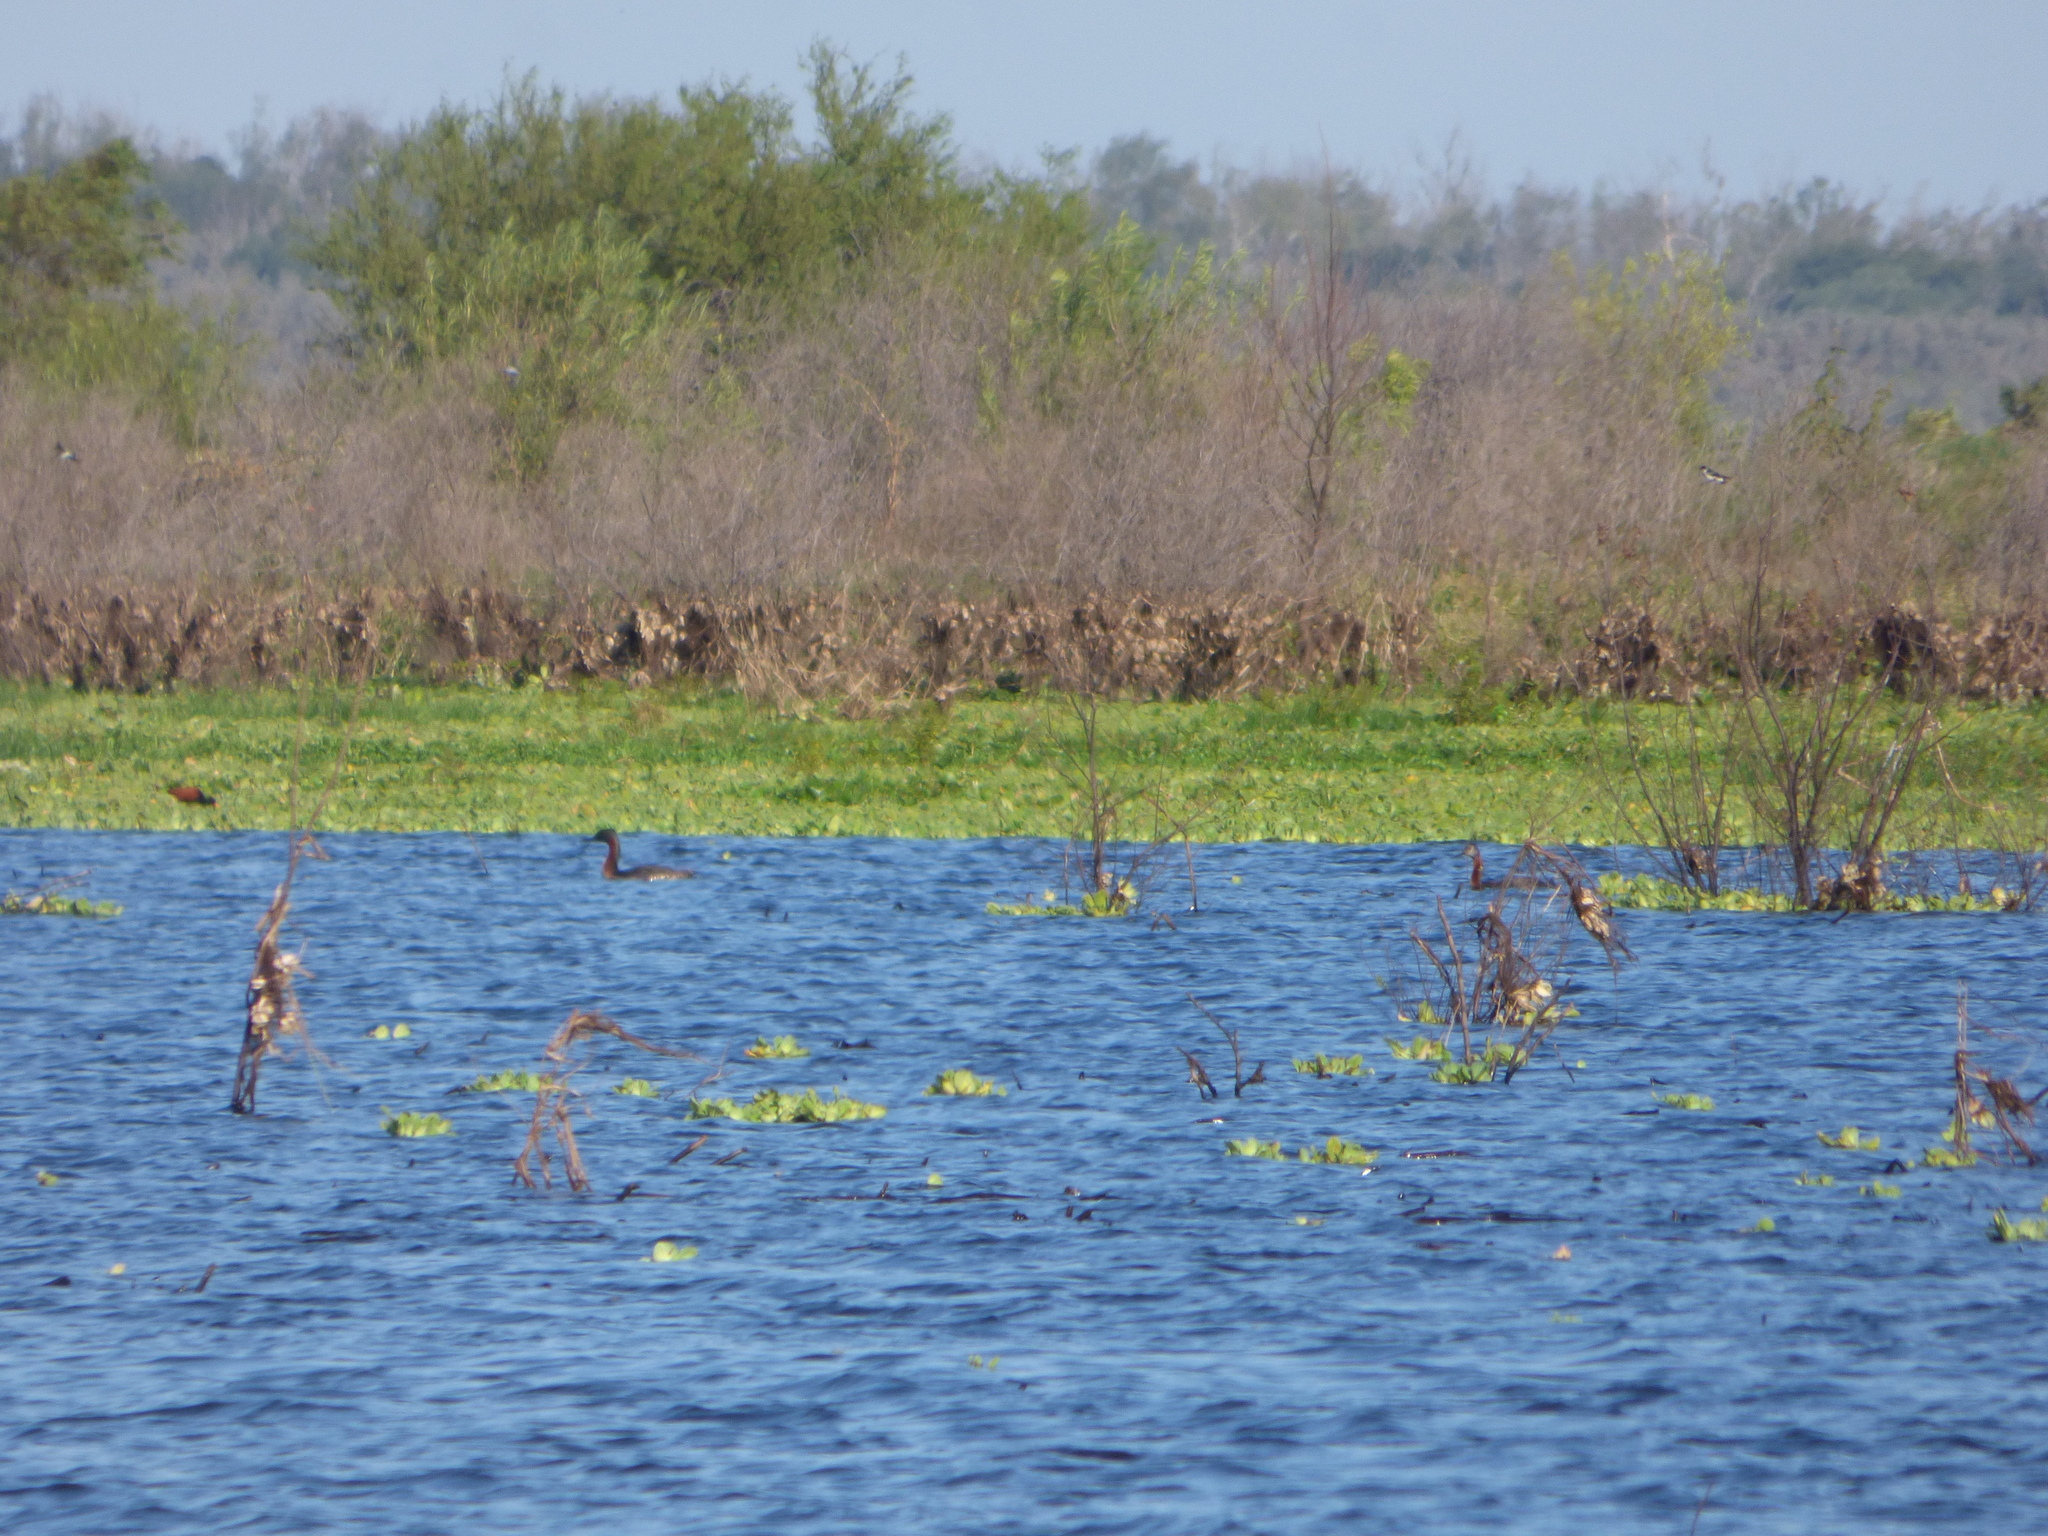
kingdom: Animalia
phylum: Chordata
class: Aves
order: Podicipediformes
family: Podicipedidae
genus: Podiceps
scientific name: Podiceps major
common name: Great grebe
